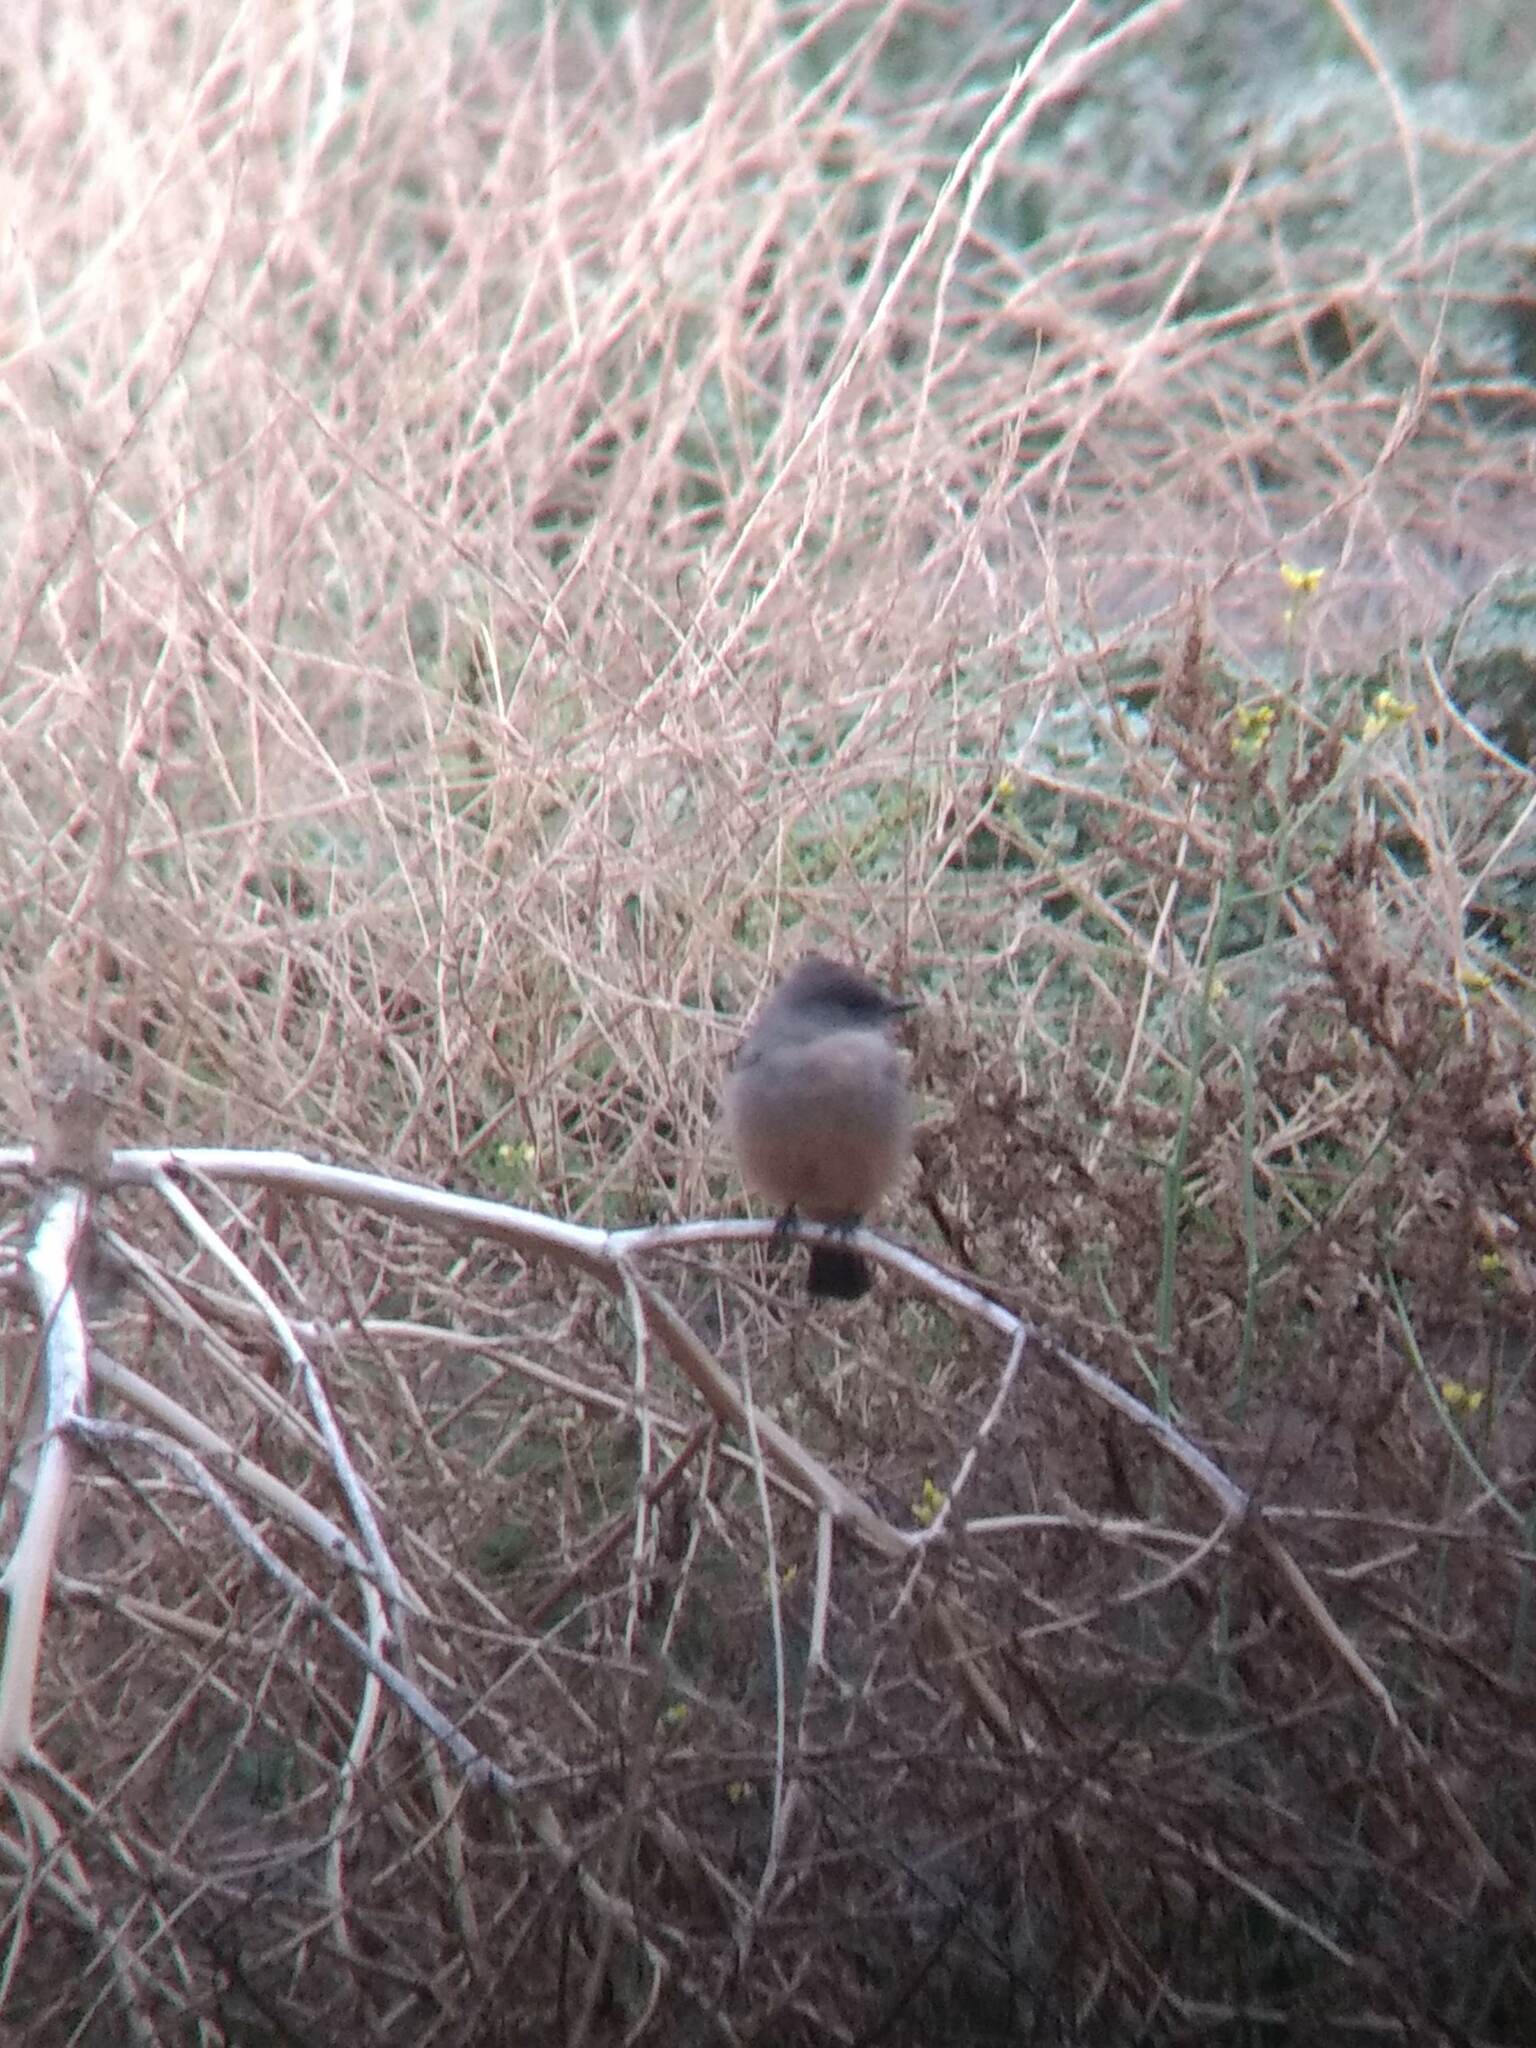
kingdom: Animalia
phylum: Chordata
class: Aves
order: Passeriformes
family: Tyrannidae
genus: Sayornis
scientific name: Sayornis saya
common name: Say's phoebe
